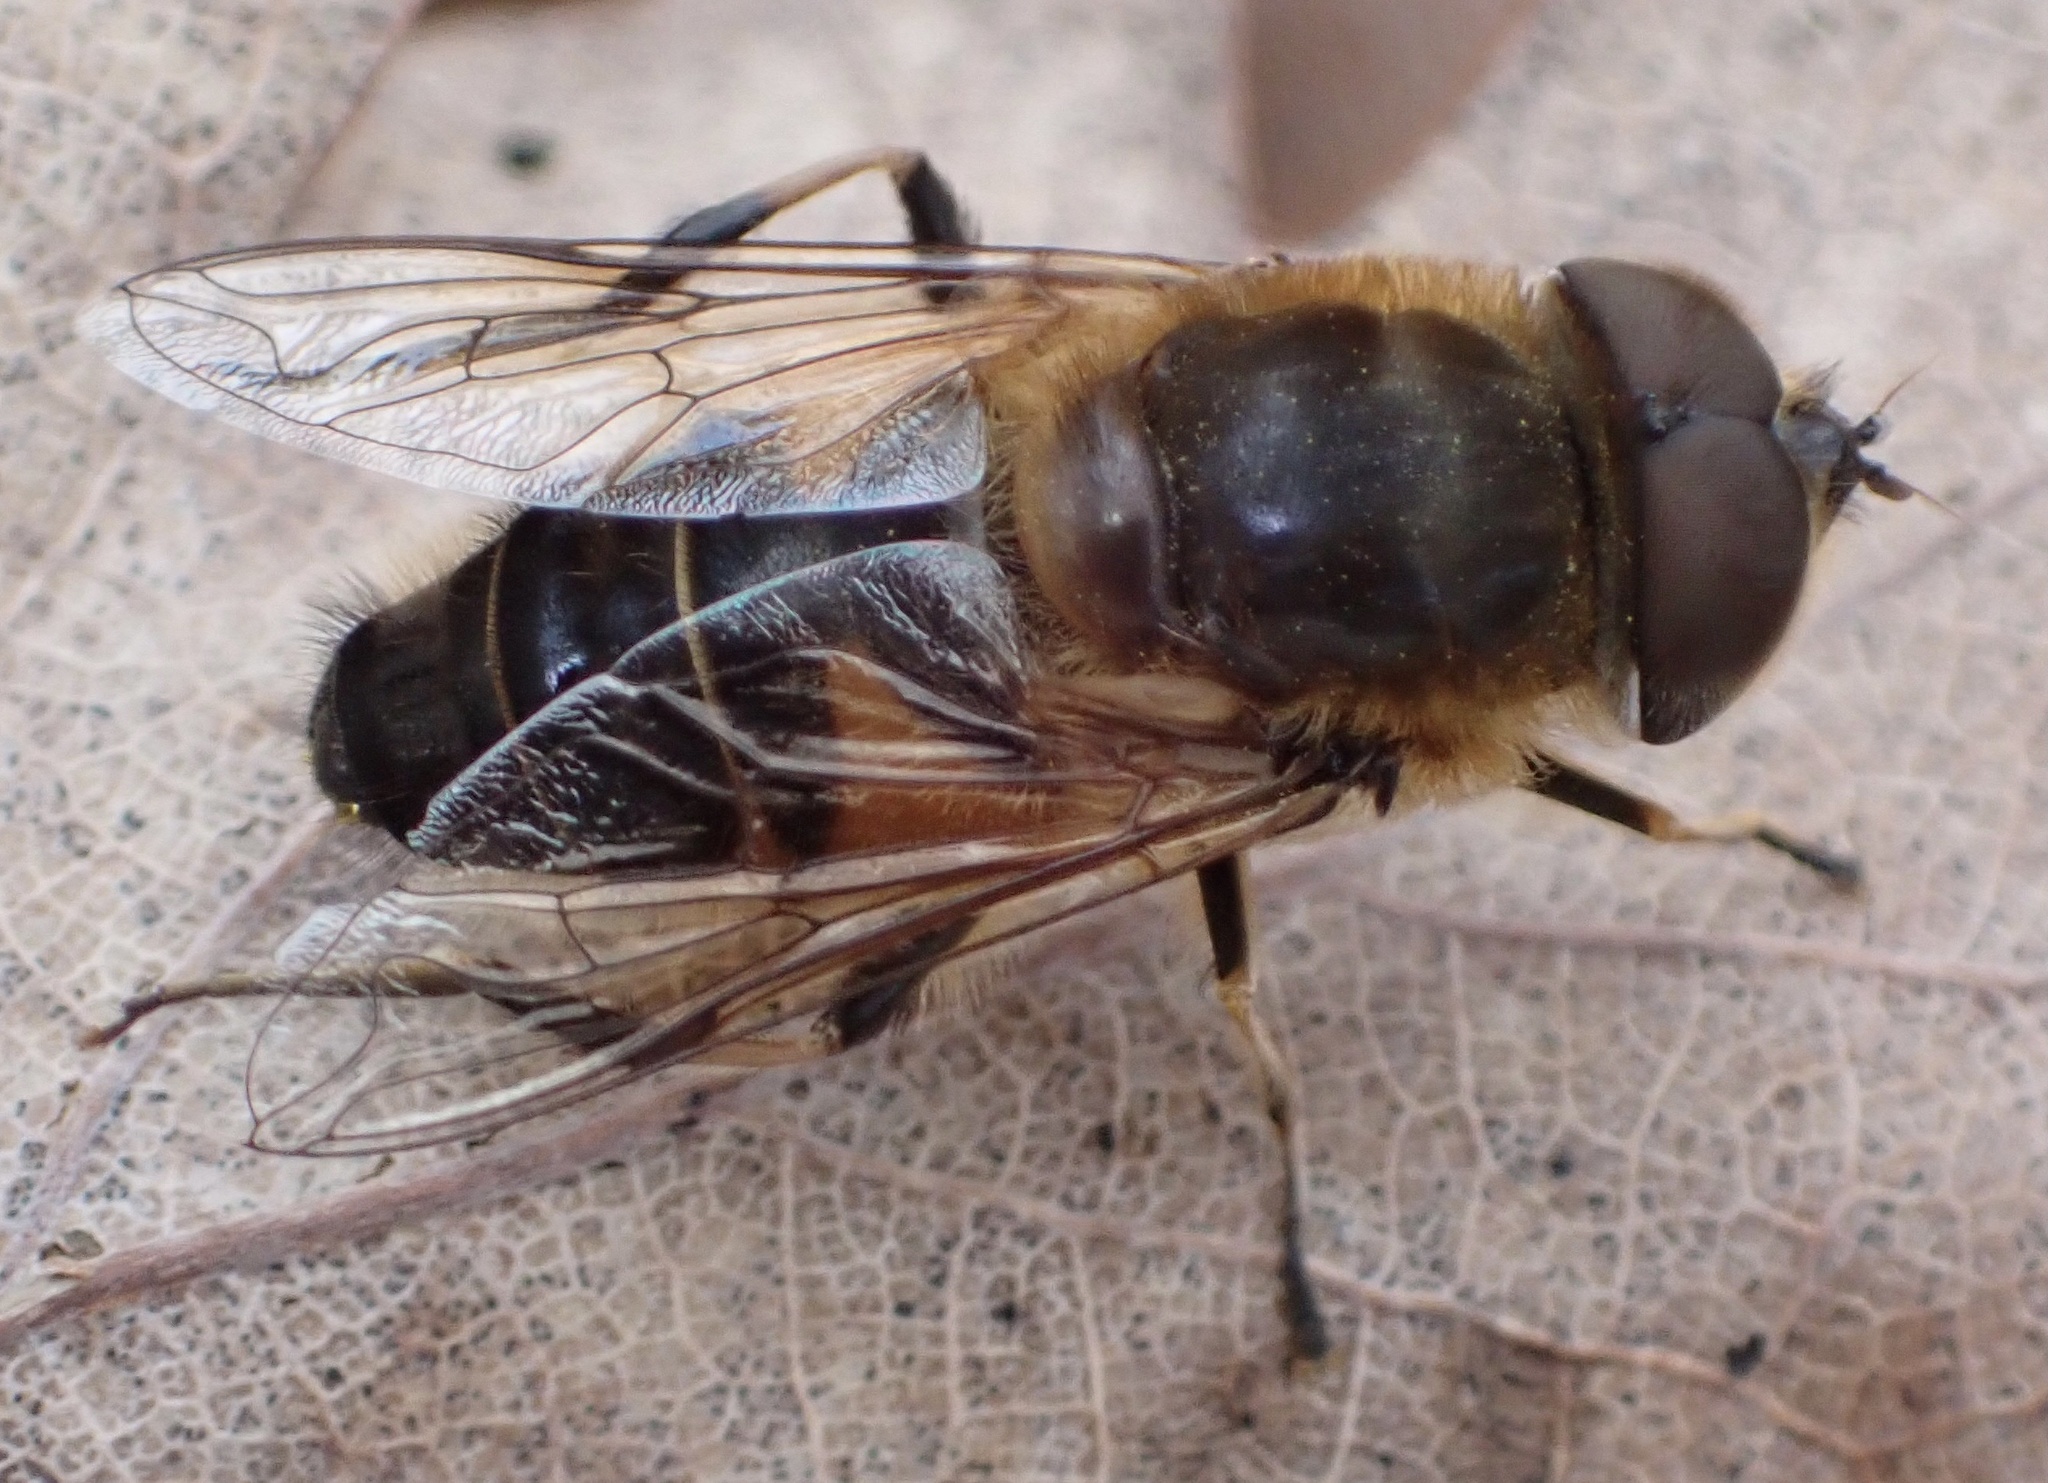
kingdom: Animalia
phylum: Arthropoda
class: Insecta
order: Diptera
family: Syrphidae
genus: Eristalis
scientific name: Eristalis pertinax
